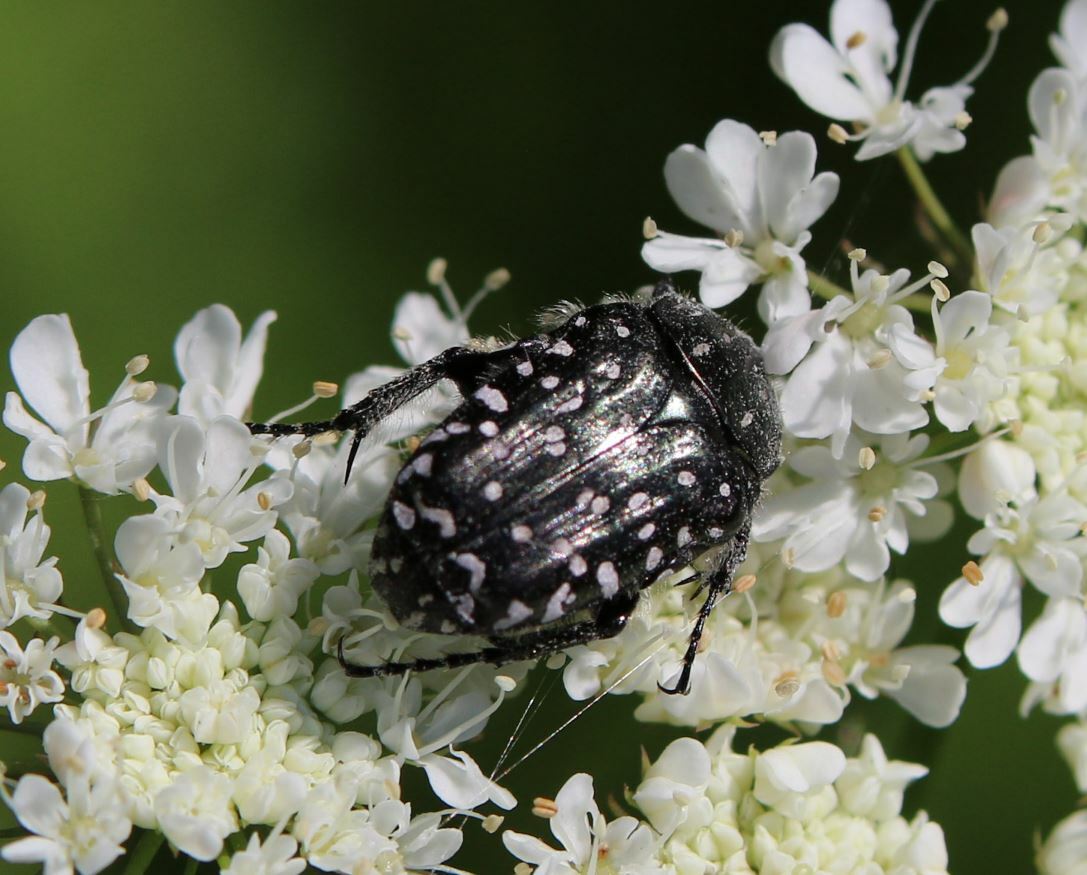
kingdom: Animalia
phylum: Arthropoda
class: Insecta
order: Coleoptera
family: Scarabaeidae
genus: Oxythyrea
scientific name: Oxythyrea funesta
